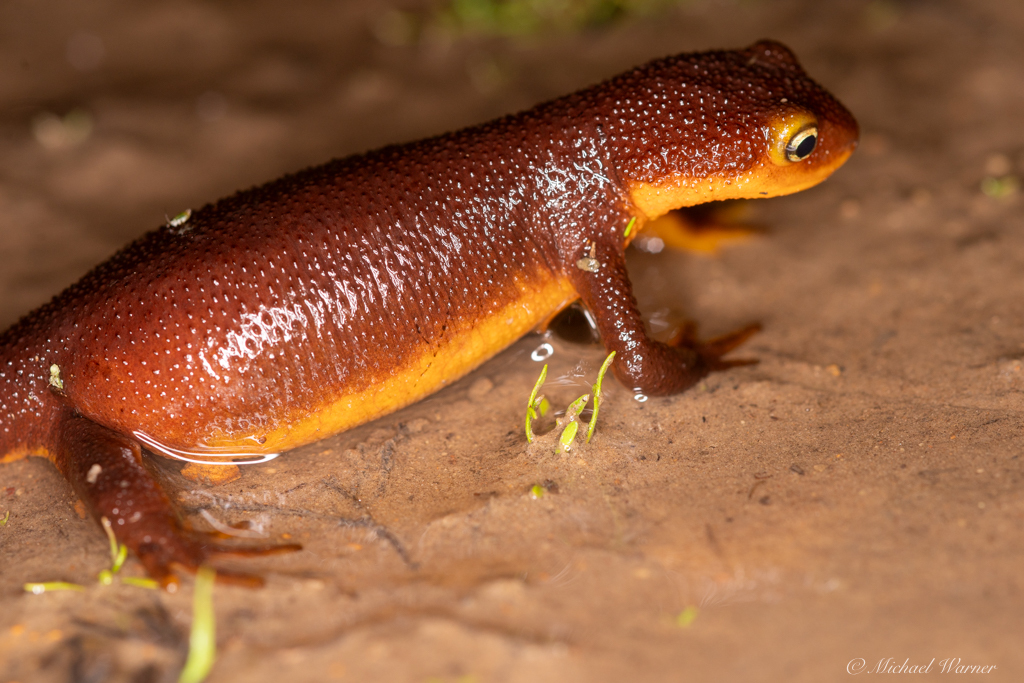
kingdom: Animalia
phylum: Chordata
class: Amphibia
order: Caudata
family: Salamandridae
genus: Taricha
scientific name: Taricha torosa
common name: California newt
